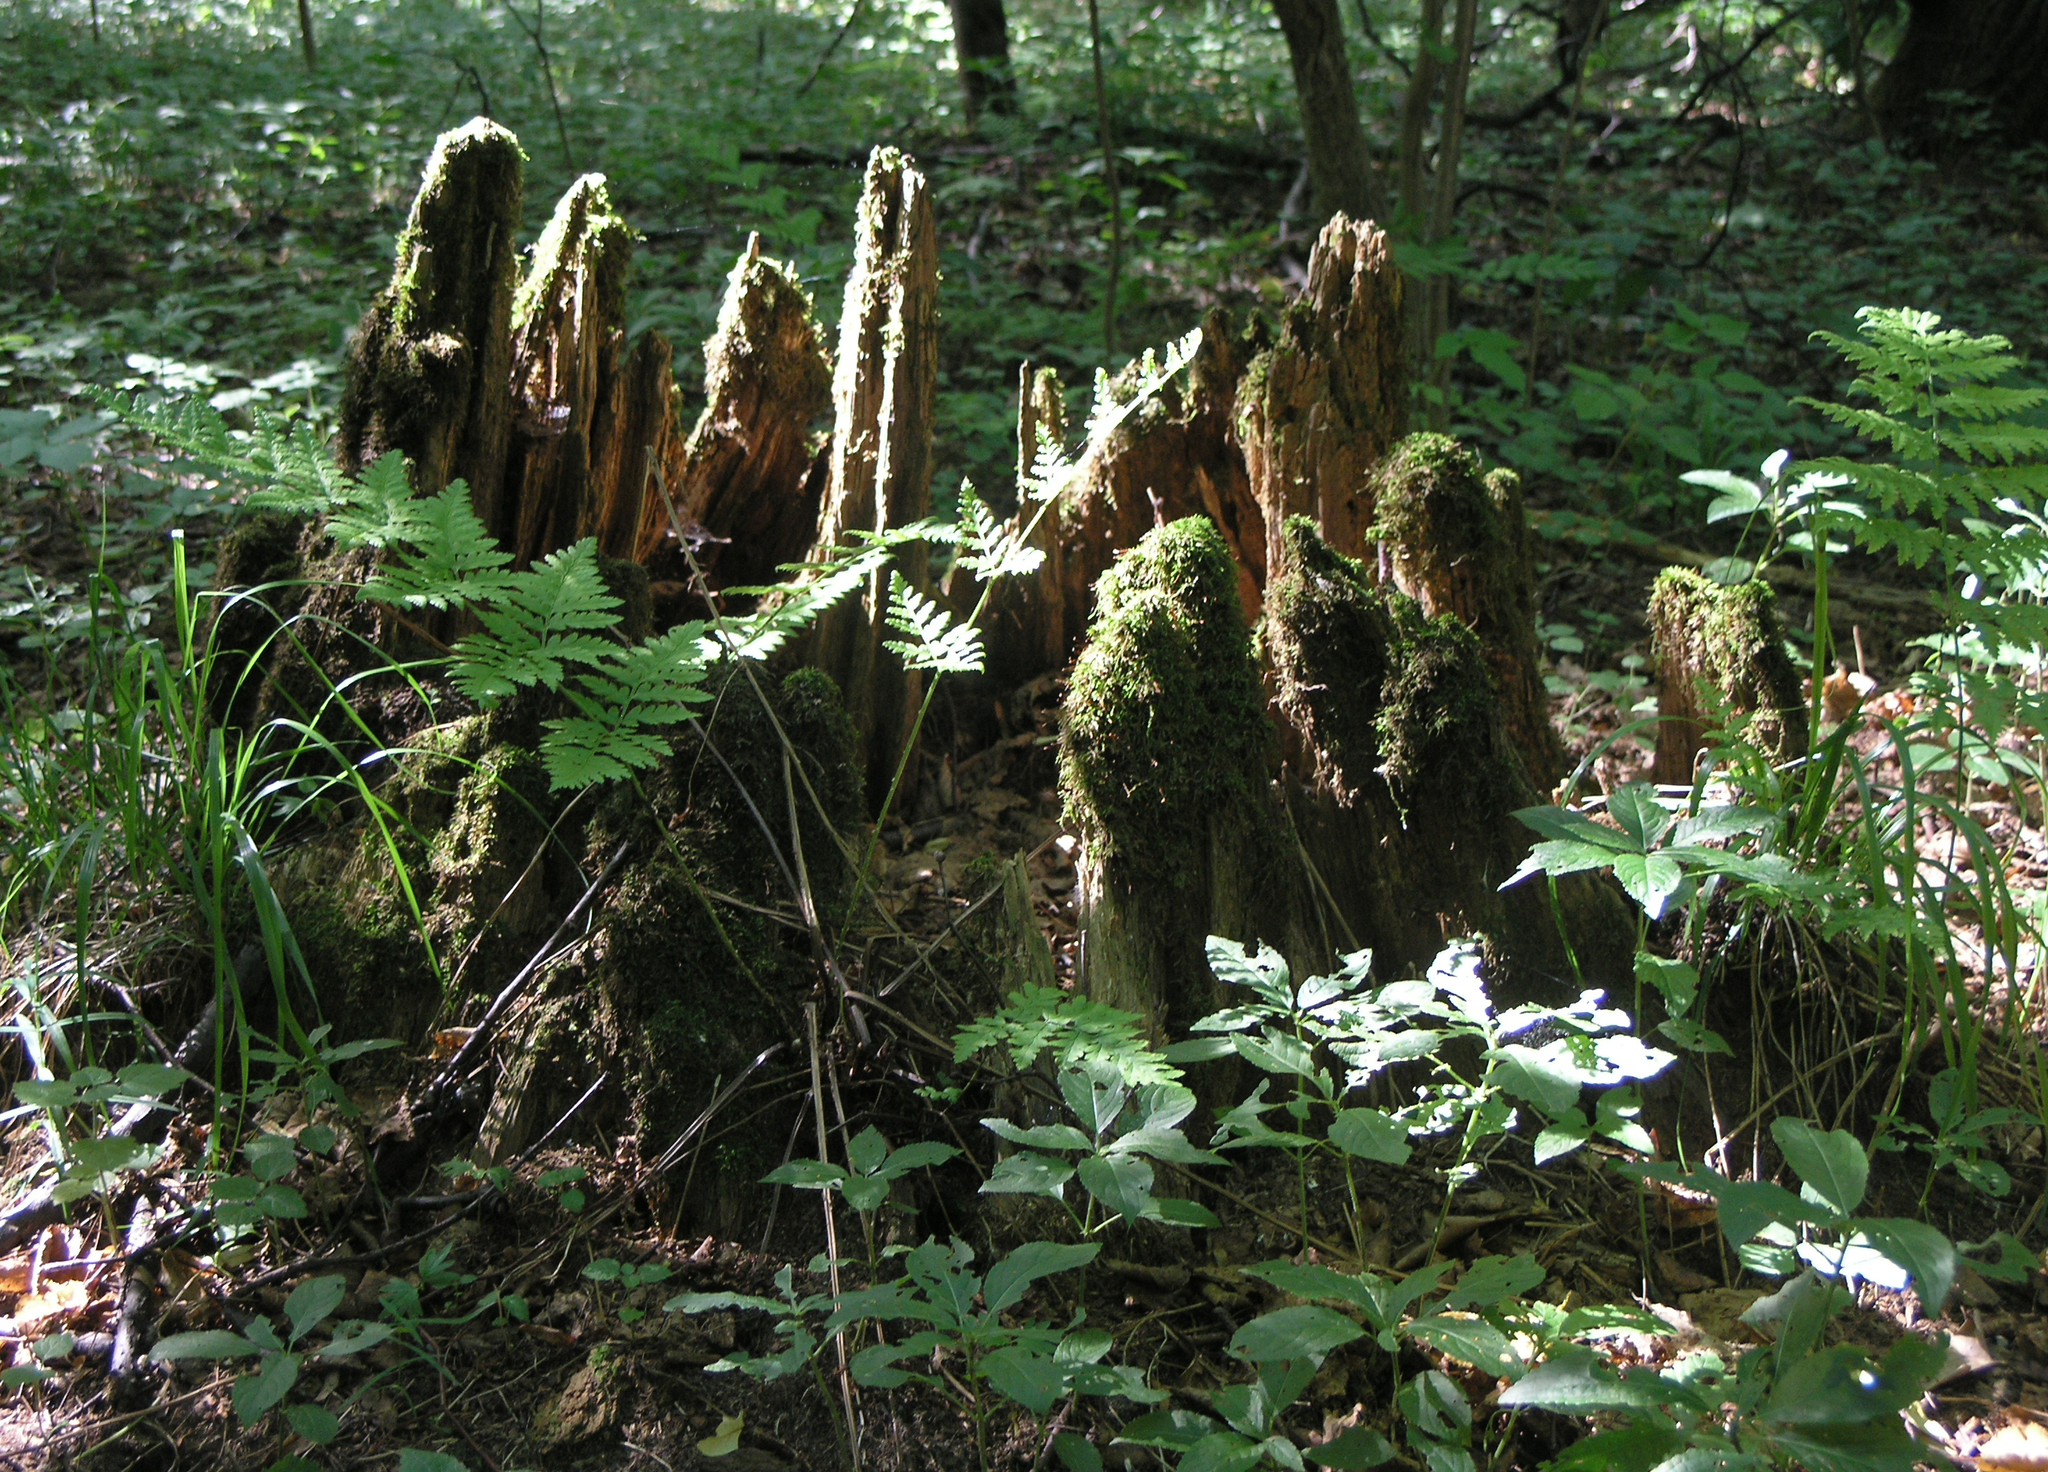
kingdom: Plantae
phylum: Tracheophyta
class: Polypodiopsida
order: Polypodiales
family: Dryopteridaceae
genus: Dryopteris
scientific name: Dryopteris carthusiana
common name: Narrow buckler-fern
